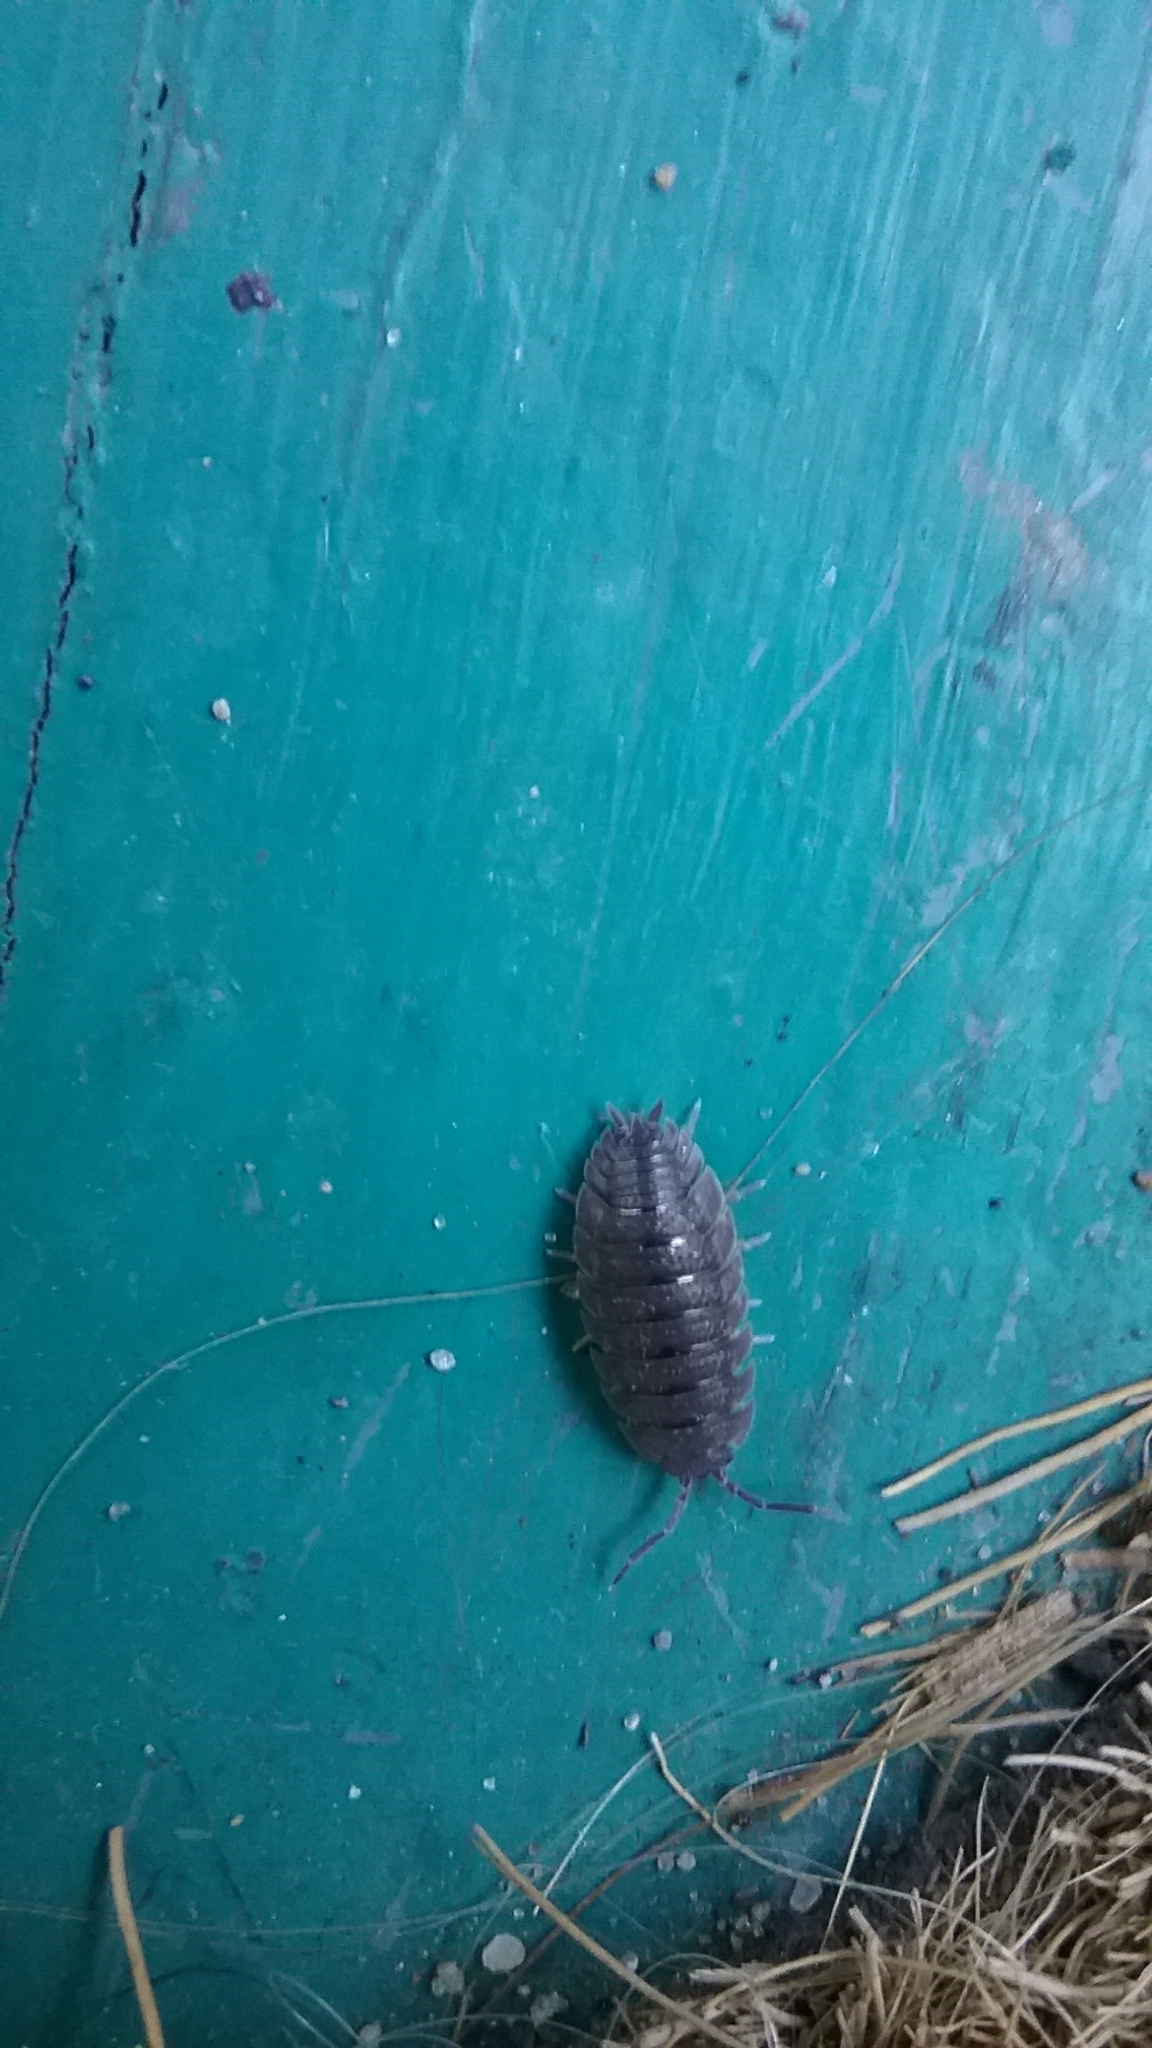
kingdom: Animalia
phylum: Arthropoda
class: Malacostraca
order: Isopoda
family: Porcellionidae
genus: Porcellio
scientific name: Porcellio scaber
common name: Common rough woodlouse
